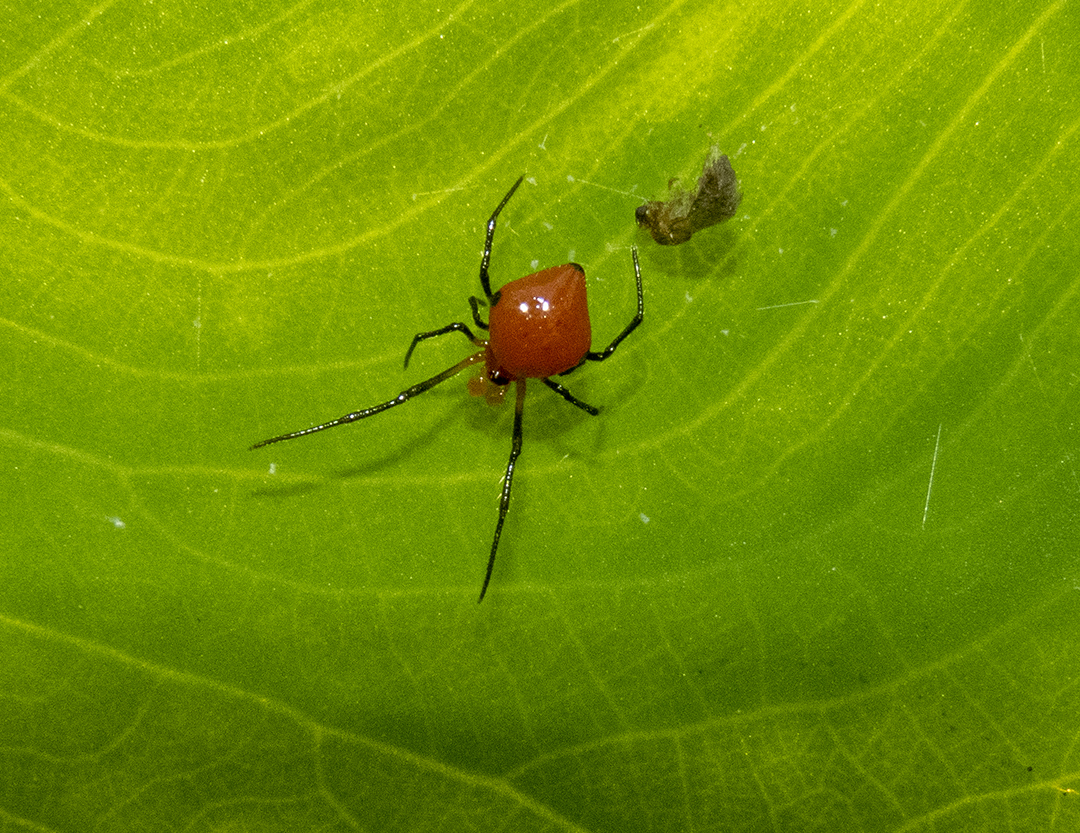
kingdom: Animalia
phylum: Arthropoda
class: Arachnida
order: Araneae
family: Theridiidae
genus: Theridion
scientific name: Theridion quadratum
